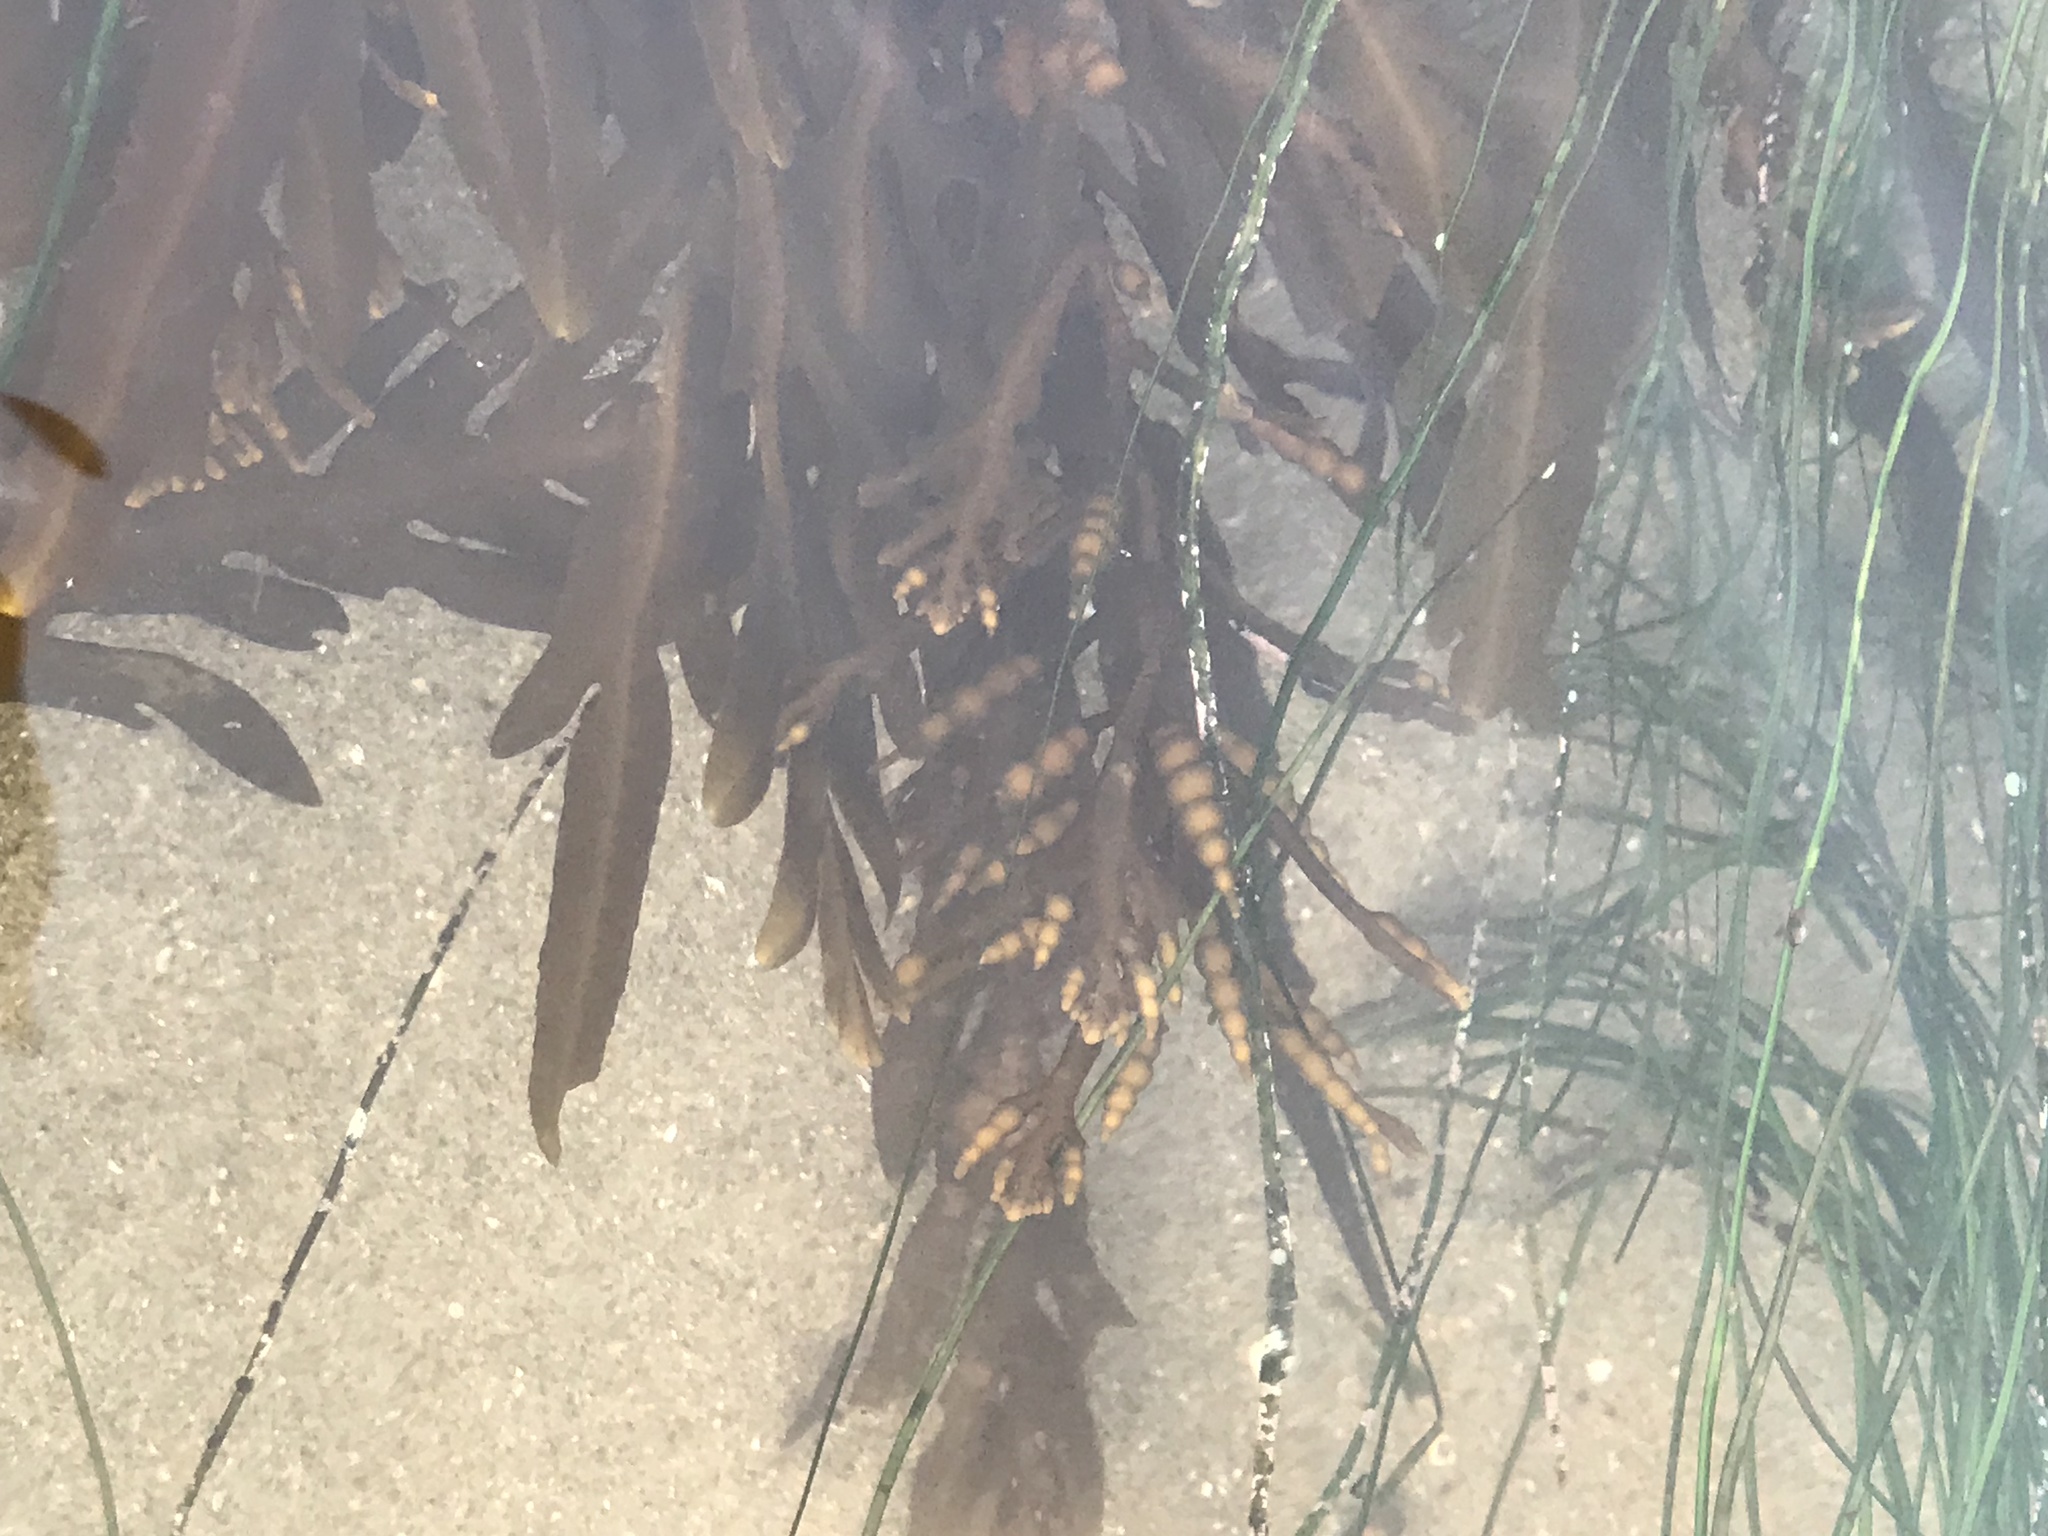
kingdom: Chromista
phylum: Ochrophyta
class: Phaeophyceae
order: Fucales
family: Sargassaceae
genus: Stephanocystis
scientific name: Stephanocystis
